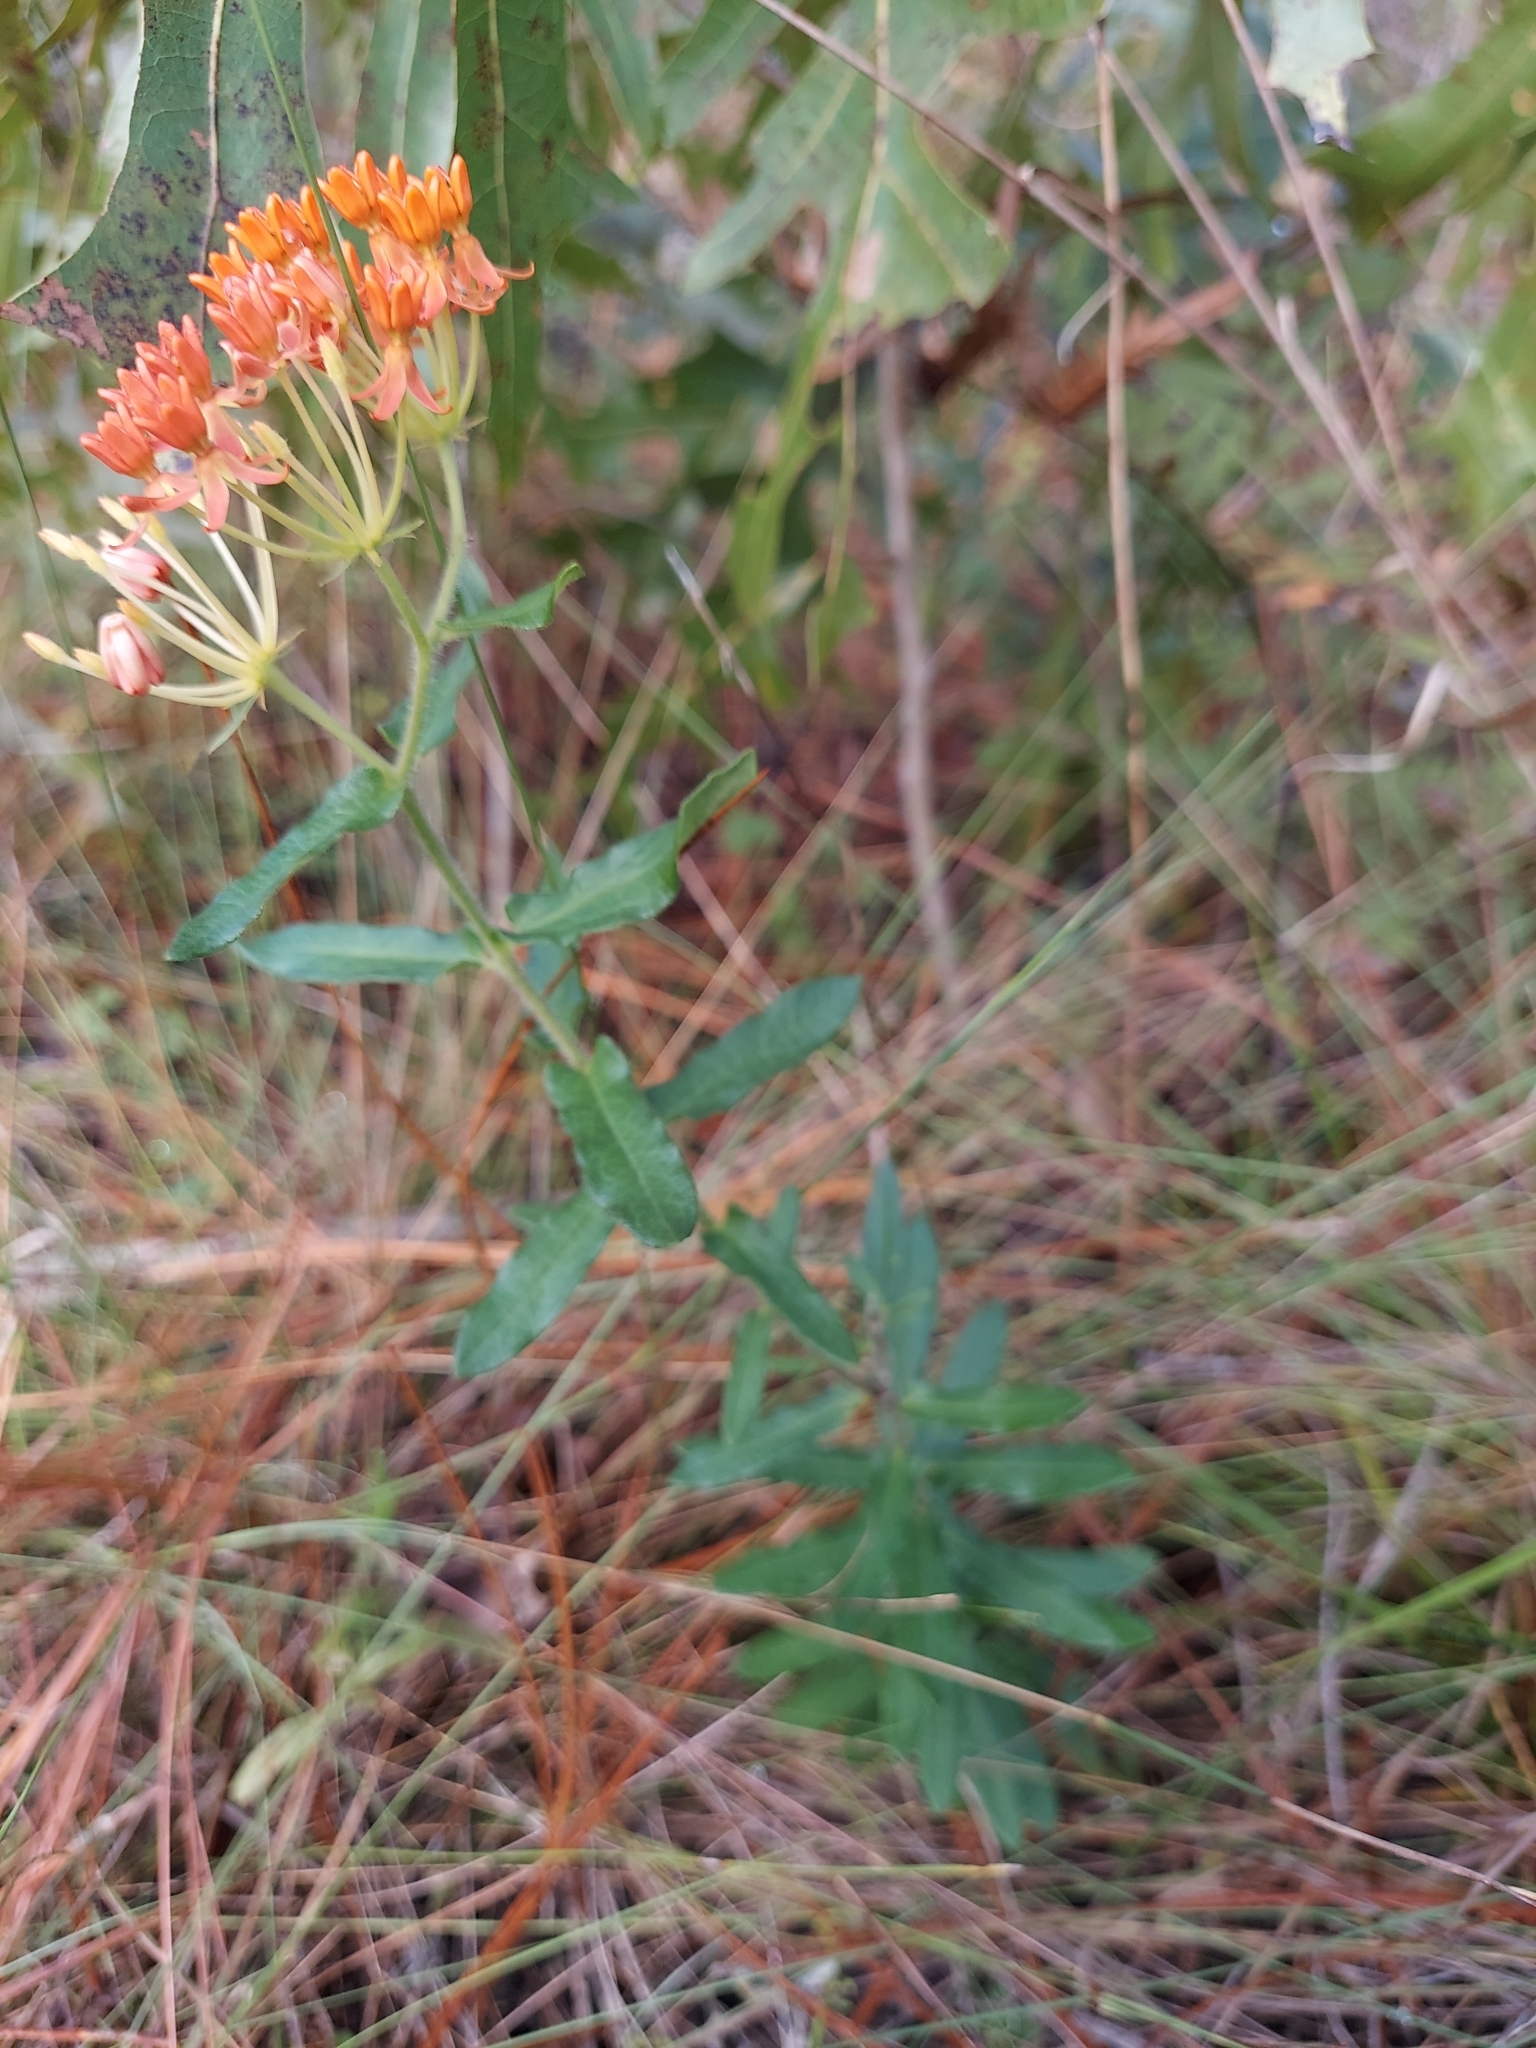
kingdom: Plantae
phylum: Tracheophyta
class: Magnoliopsida
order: Gentianales
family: Apocynaceae
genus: Asclepias
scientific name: Asclepias tuberosa
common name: Butterfly milkweed
